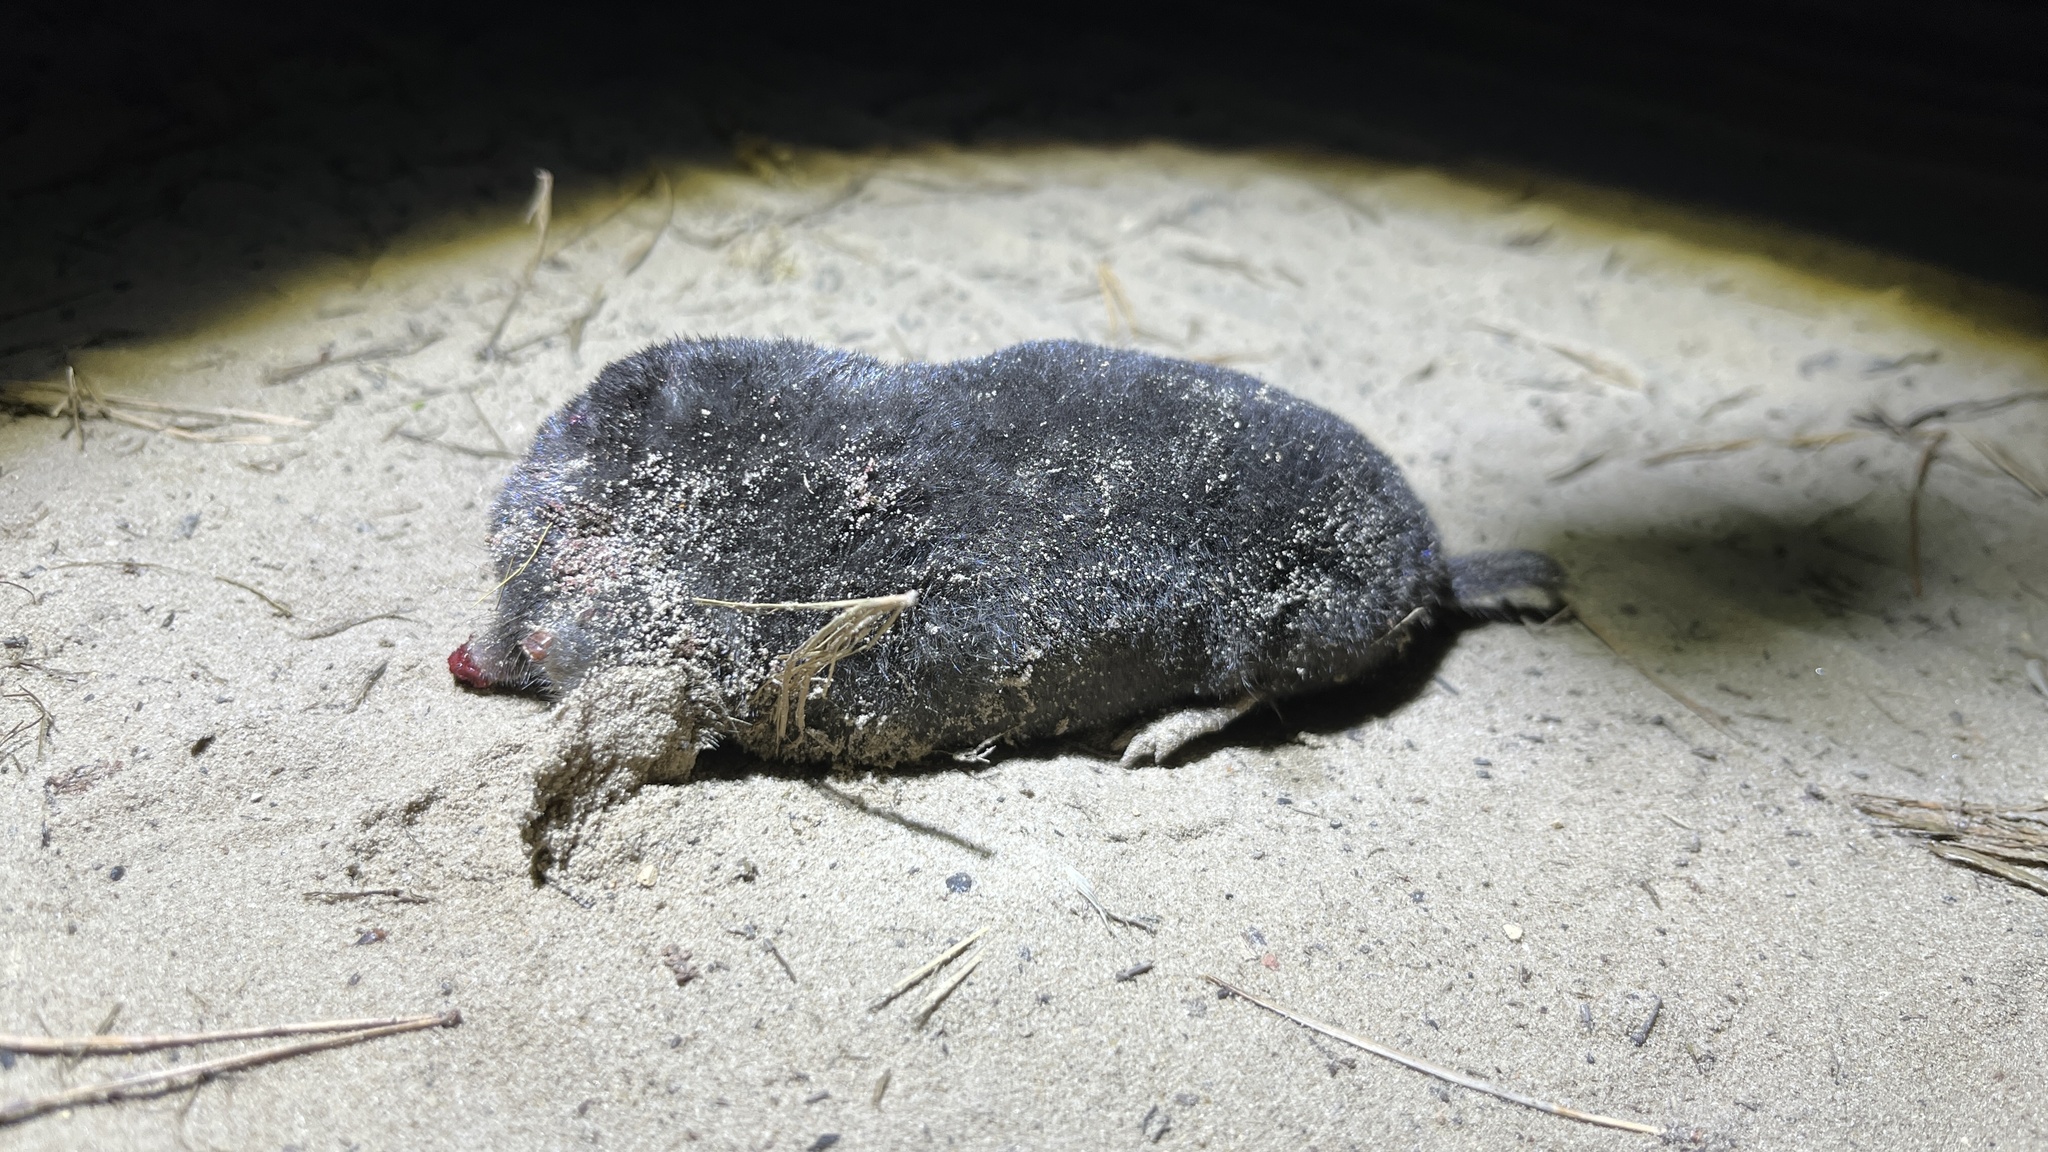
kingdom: Animalia
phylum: Chordata
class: Mammalia
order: Soricomorpha
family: Talpidae
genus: Talpa
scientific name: Talpa europaea
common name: European mole
